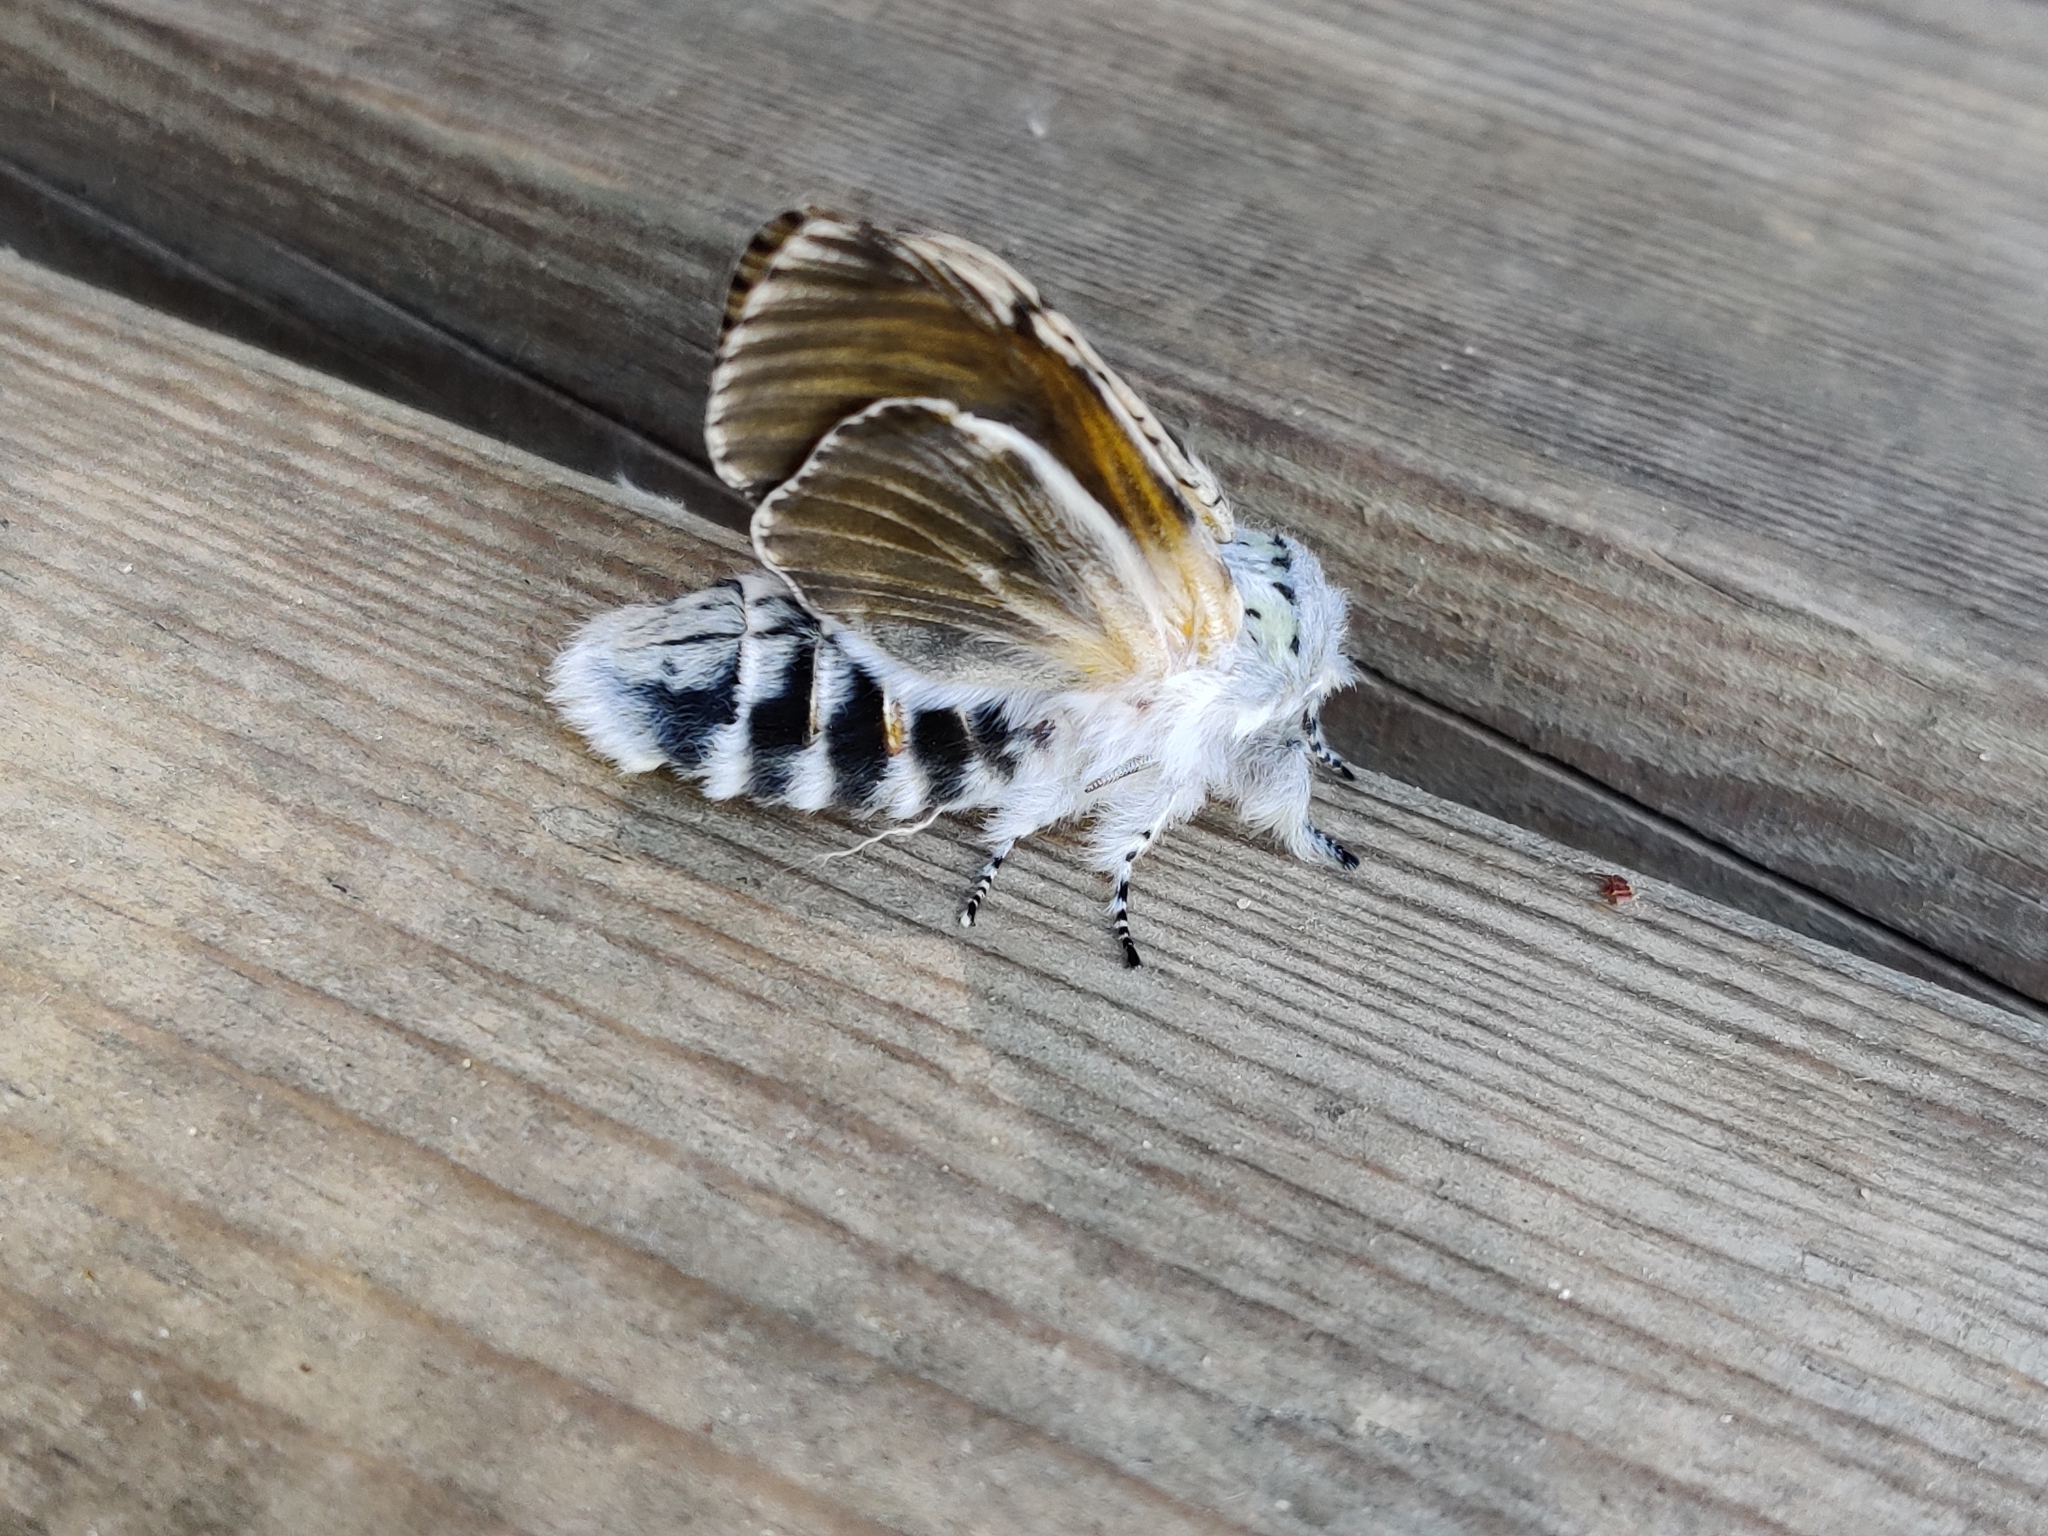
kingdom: Animalia
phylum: Arthropoda
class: Insecta
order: Lepidoptera
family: Notodontidae
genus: Cerura
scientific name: Cerura vinula
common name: Puss moth
